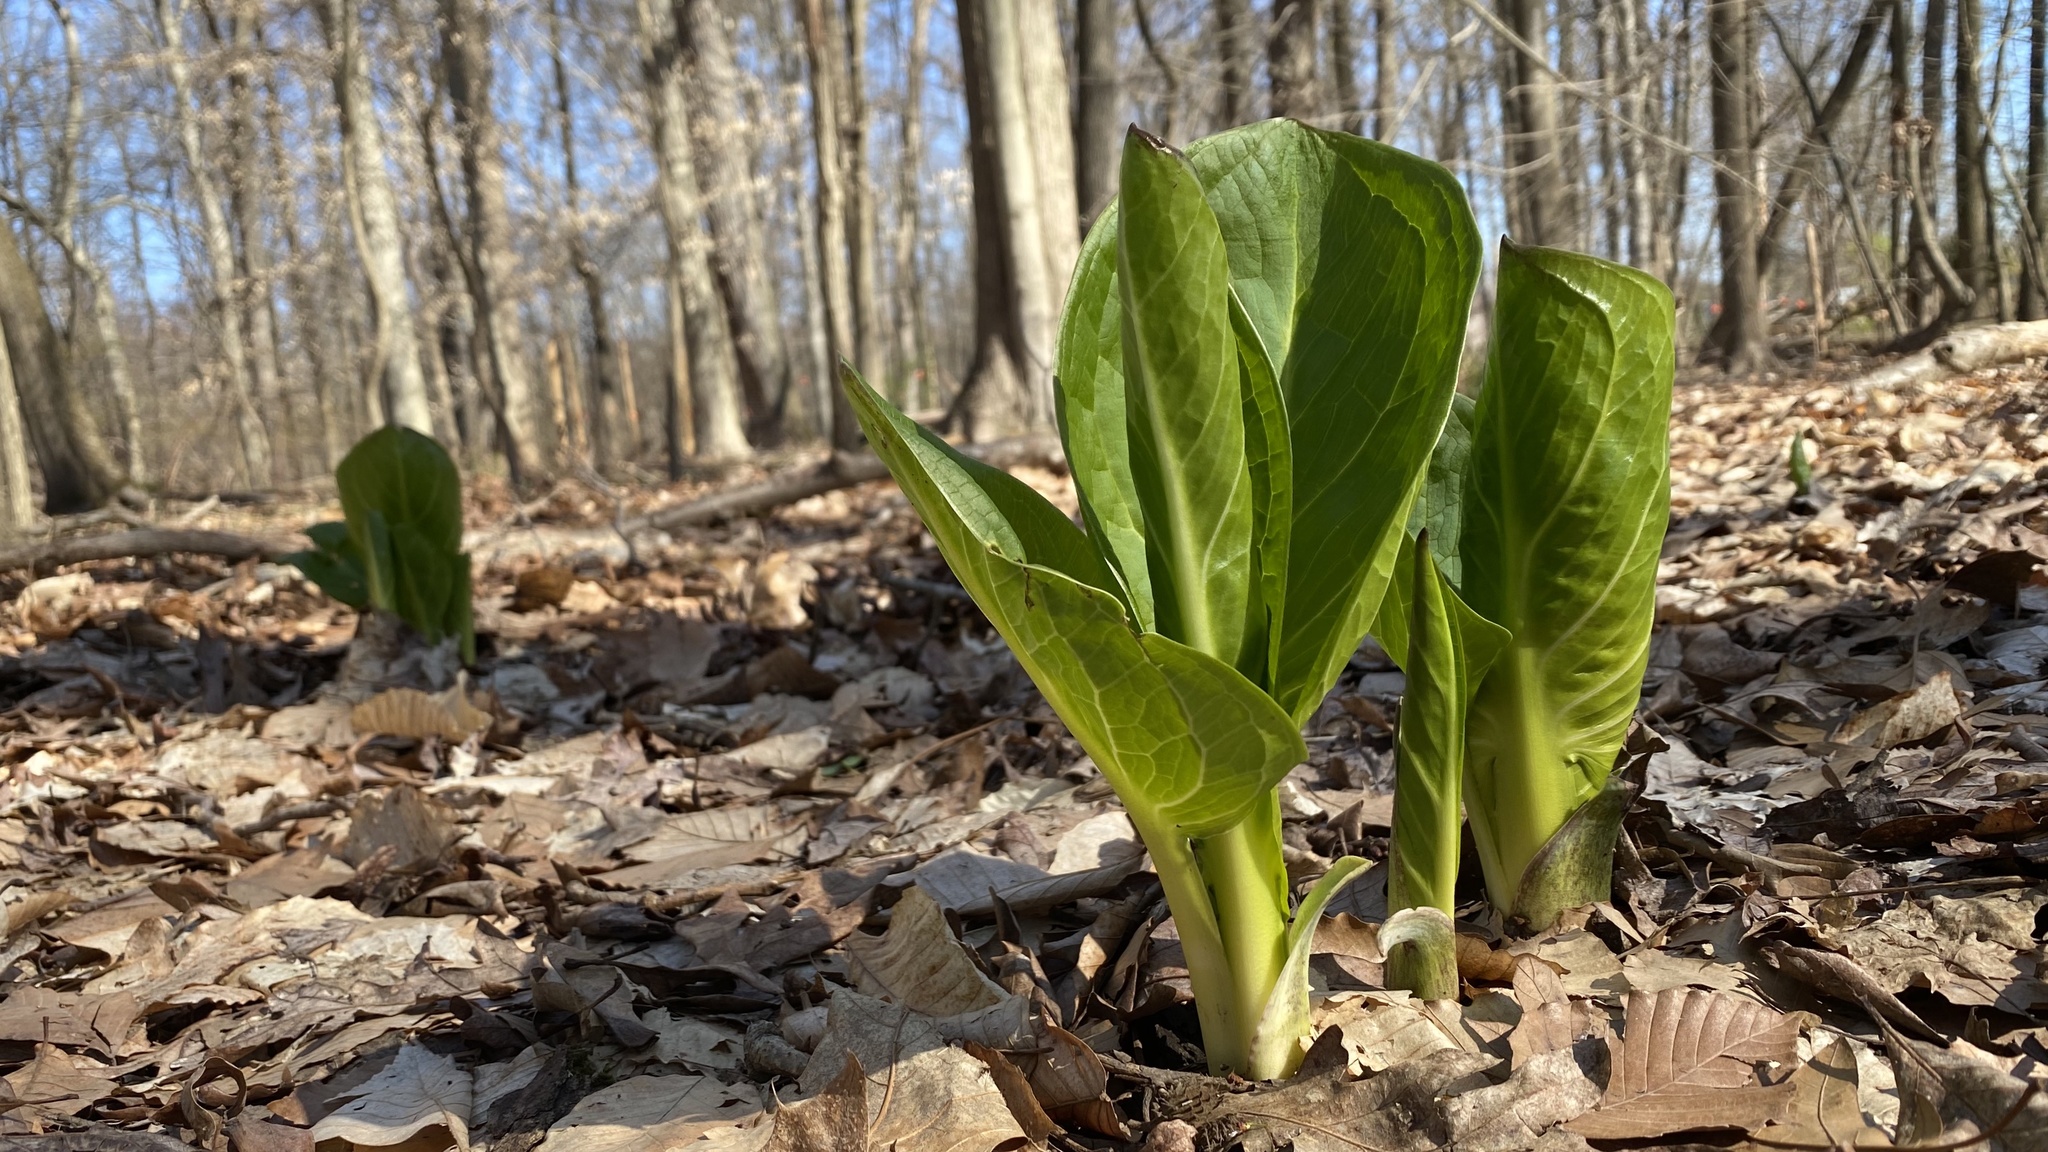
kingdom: Plantae
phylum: Tracheophyta
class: Liliopsida
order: Alismatales
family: Araceae
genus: Symplocarpus
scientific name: Symplocarpus foetidus
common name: Eastern skunk cabbage
